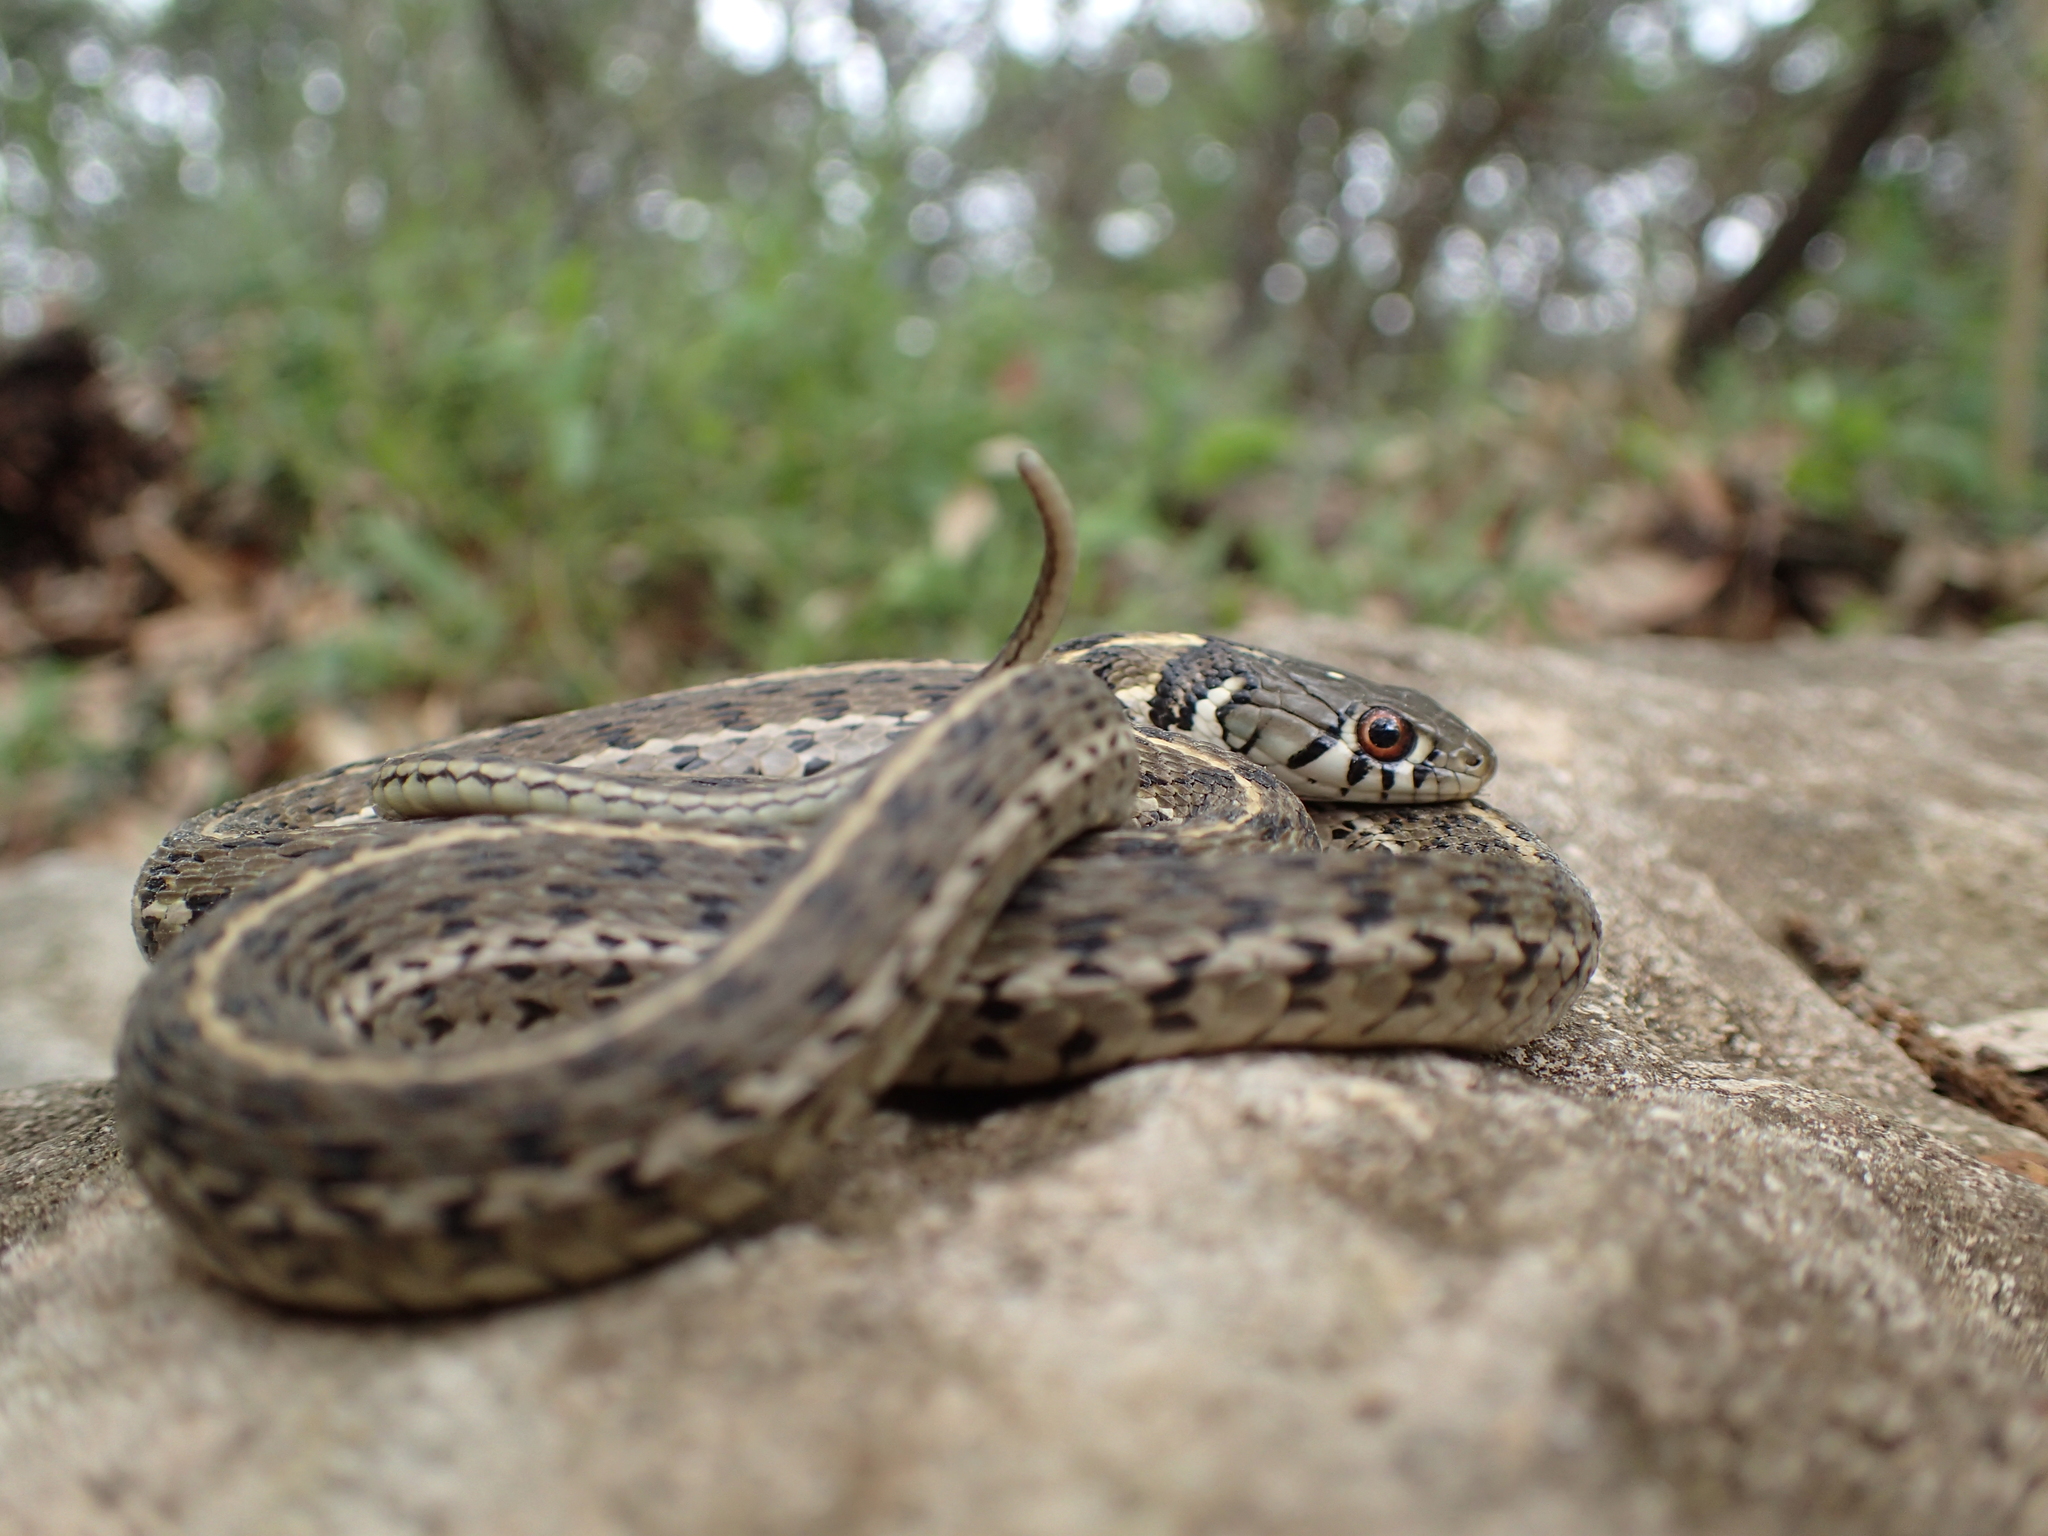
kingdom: Animalia
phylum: Chordata
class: Squamata
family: Colubridae
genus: Thamnophis
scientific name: Thamnophis marcianus
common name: Checkered garter snake
